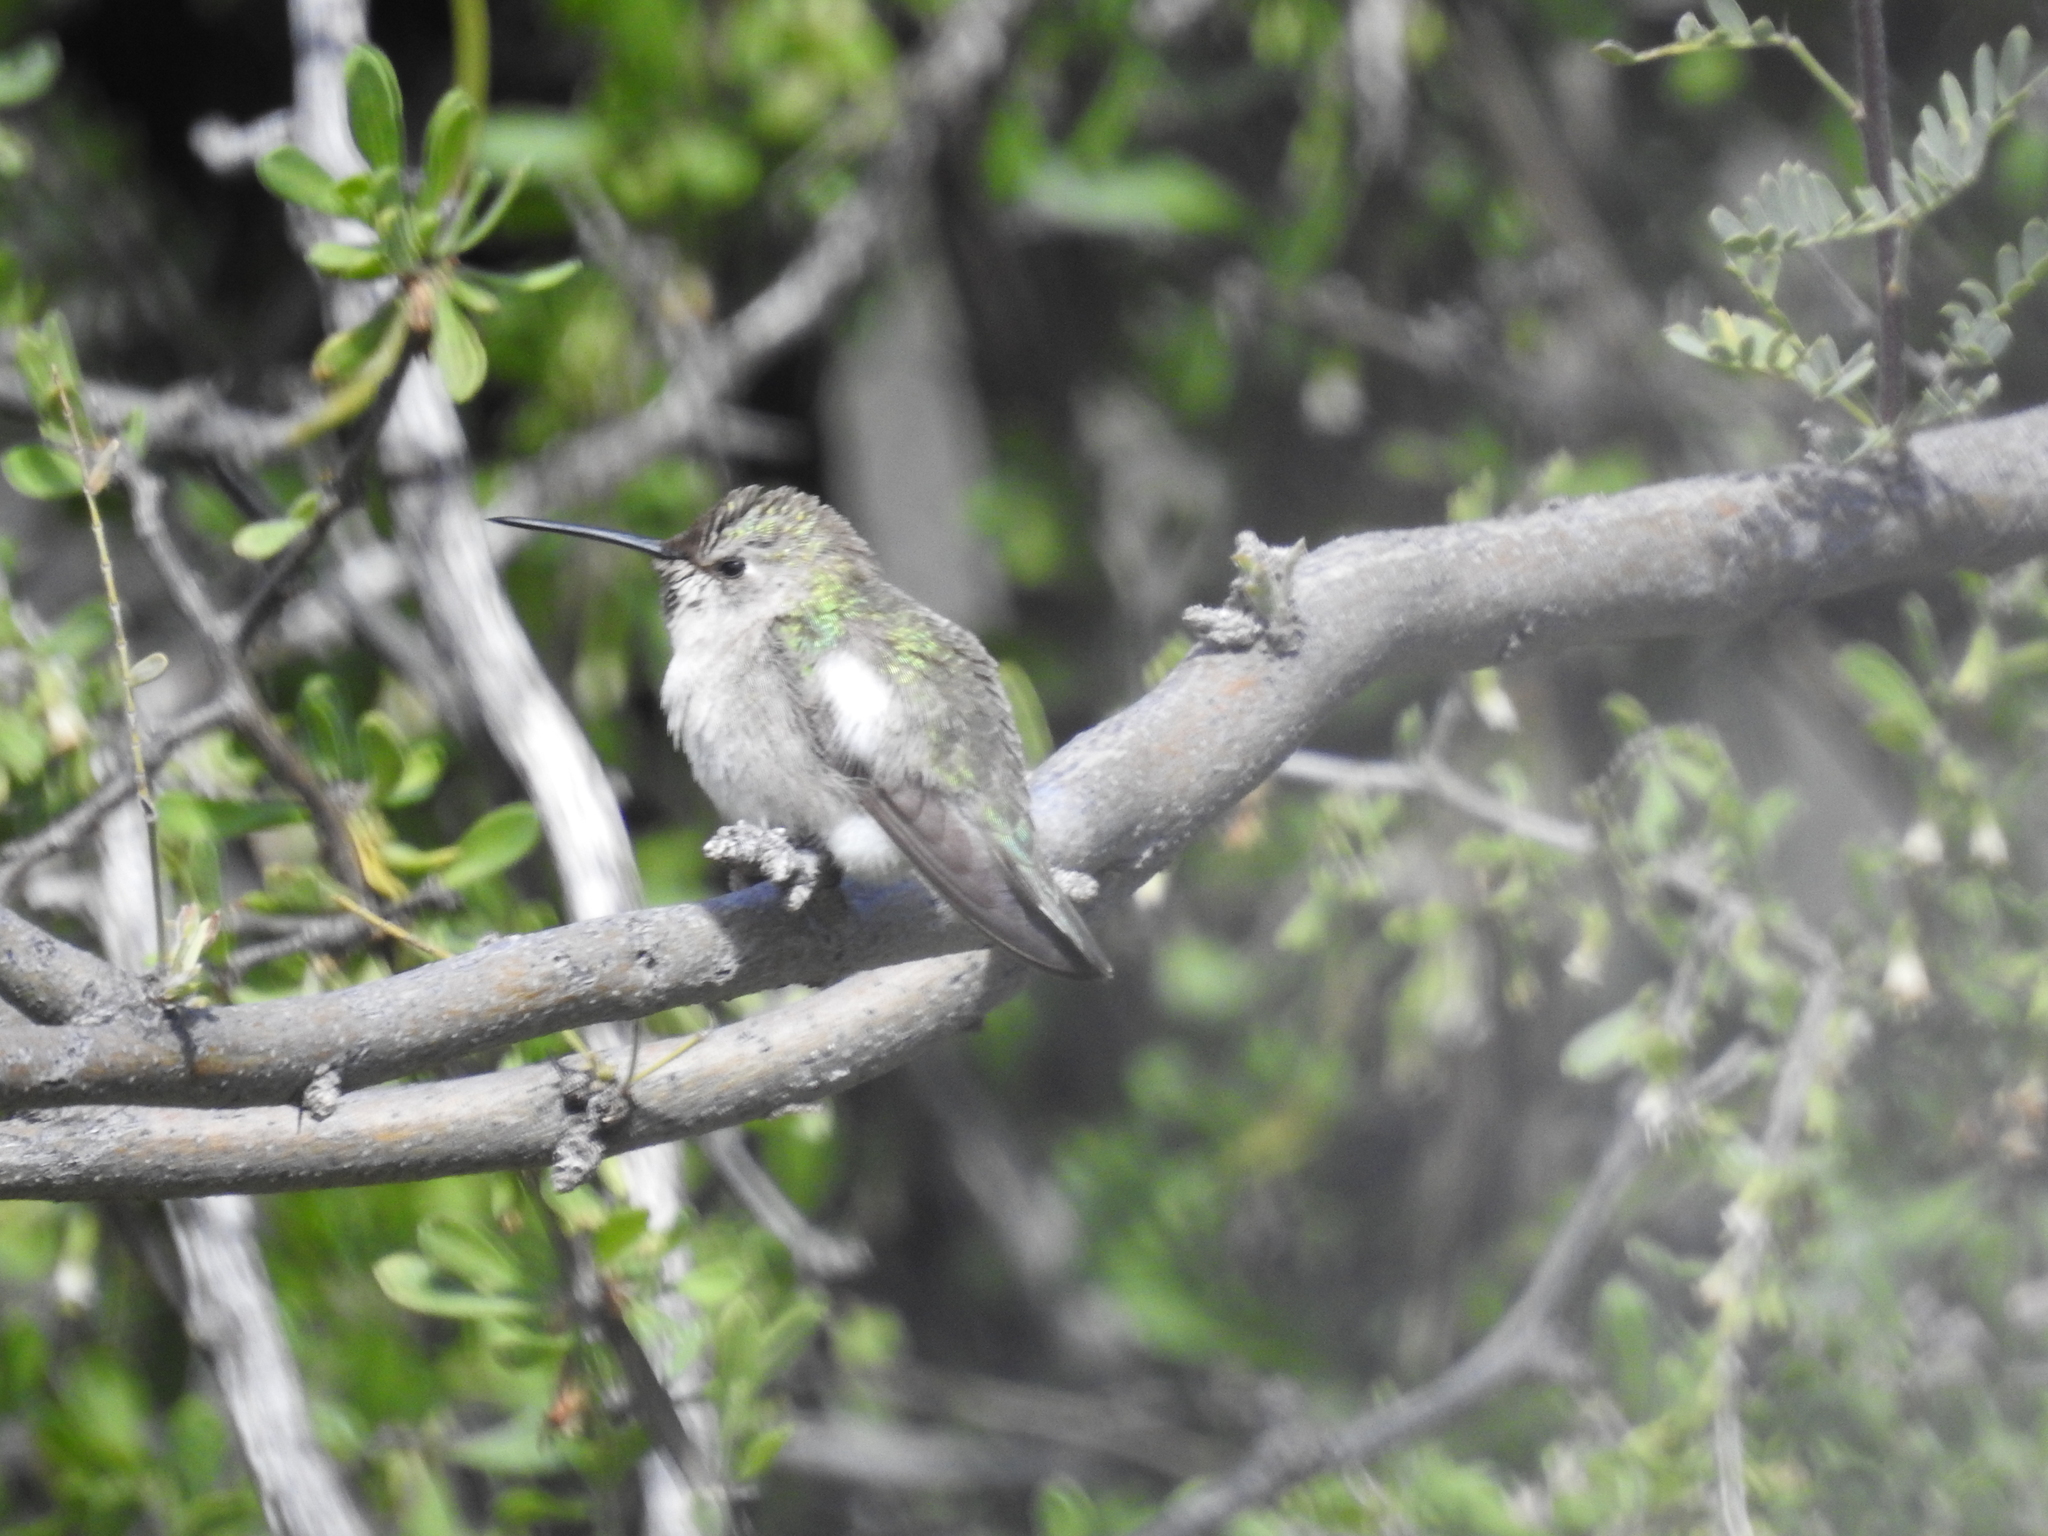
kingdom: Animalia
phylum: Chordata
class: Aves
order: Apodiformes
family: Trochilidae
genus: Calypte
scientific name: Calypte costae
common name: Costa's hummingbird
